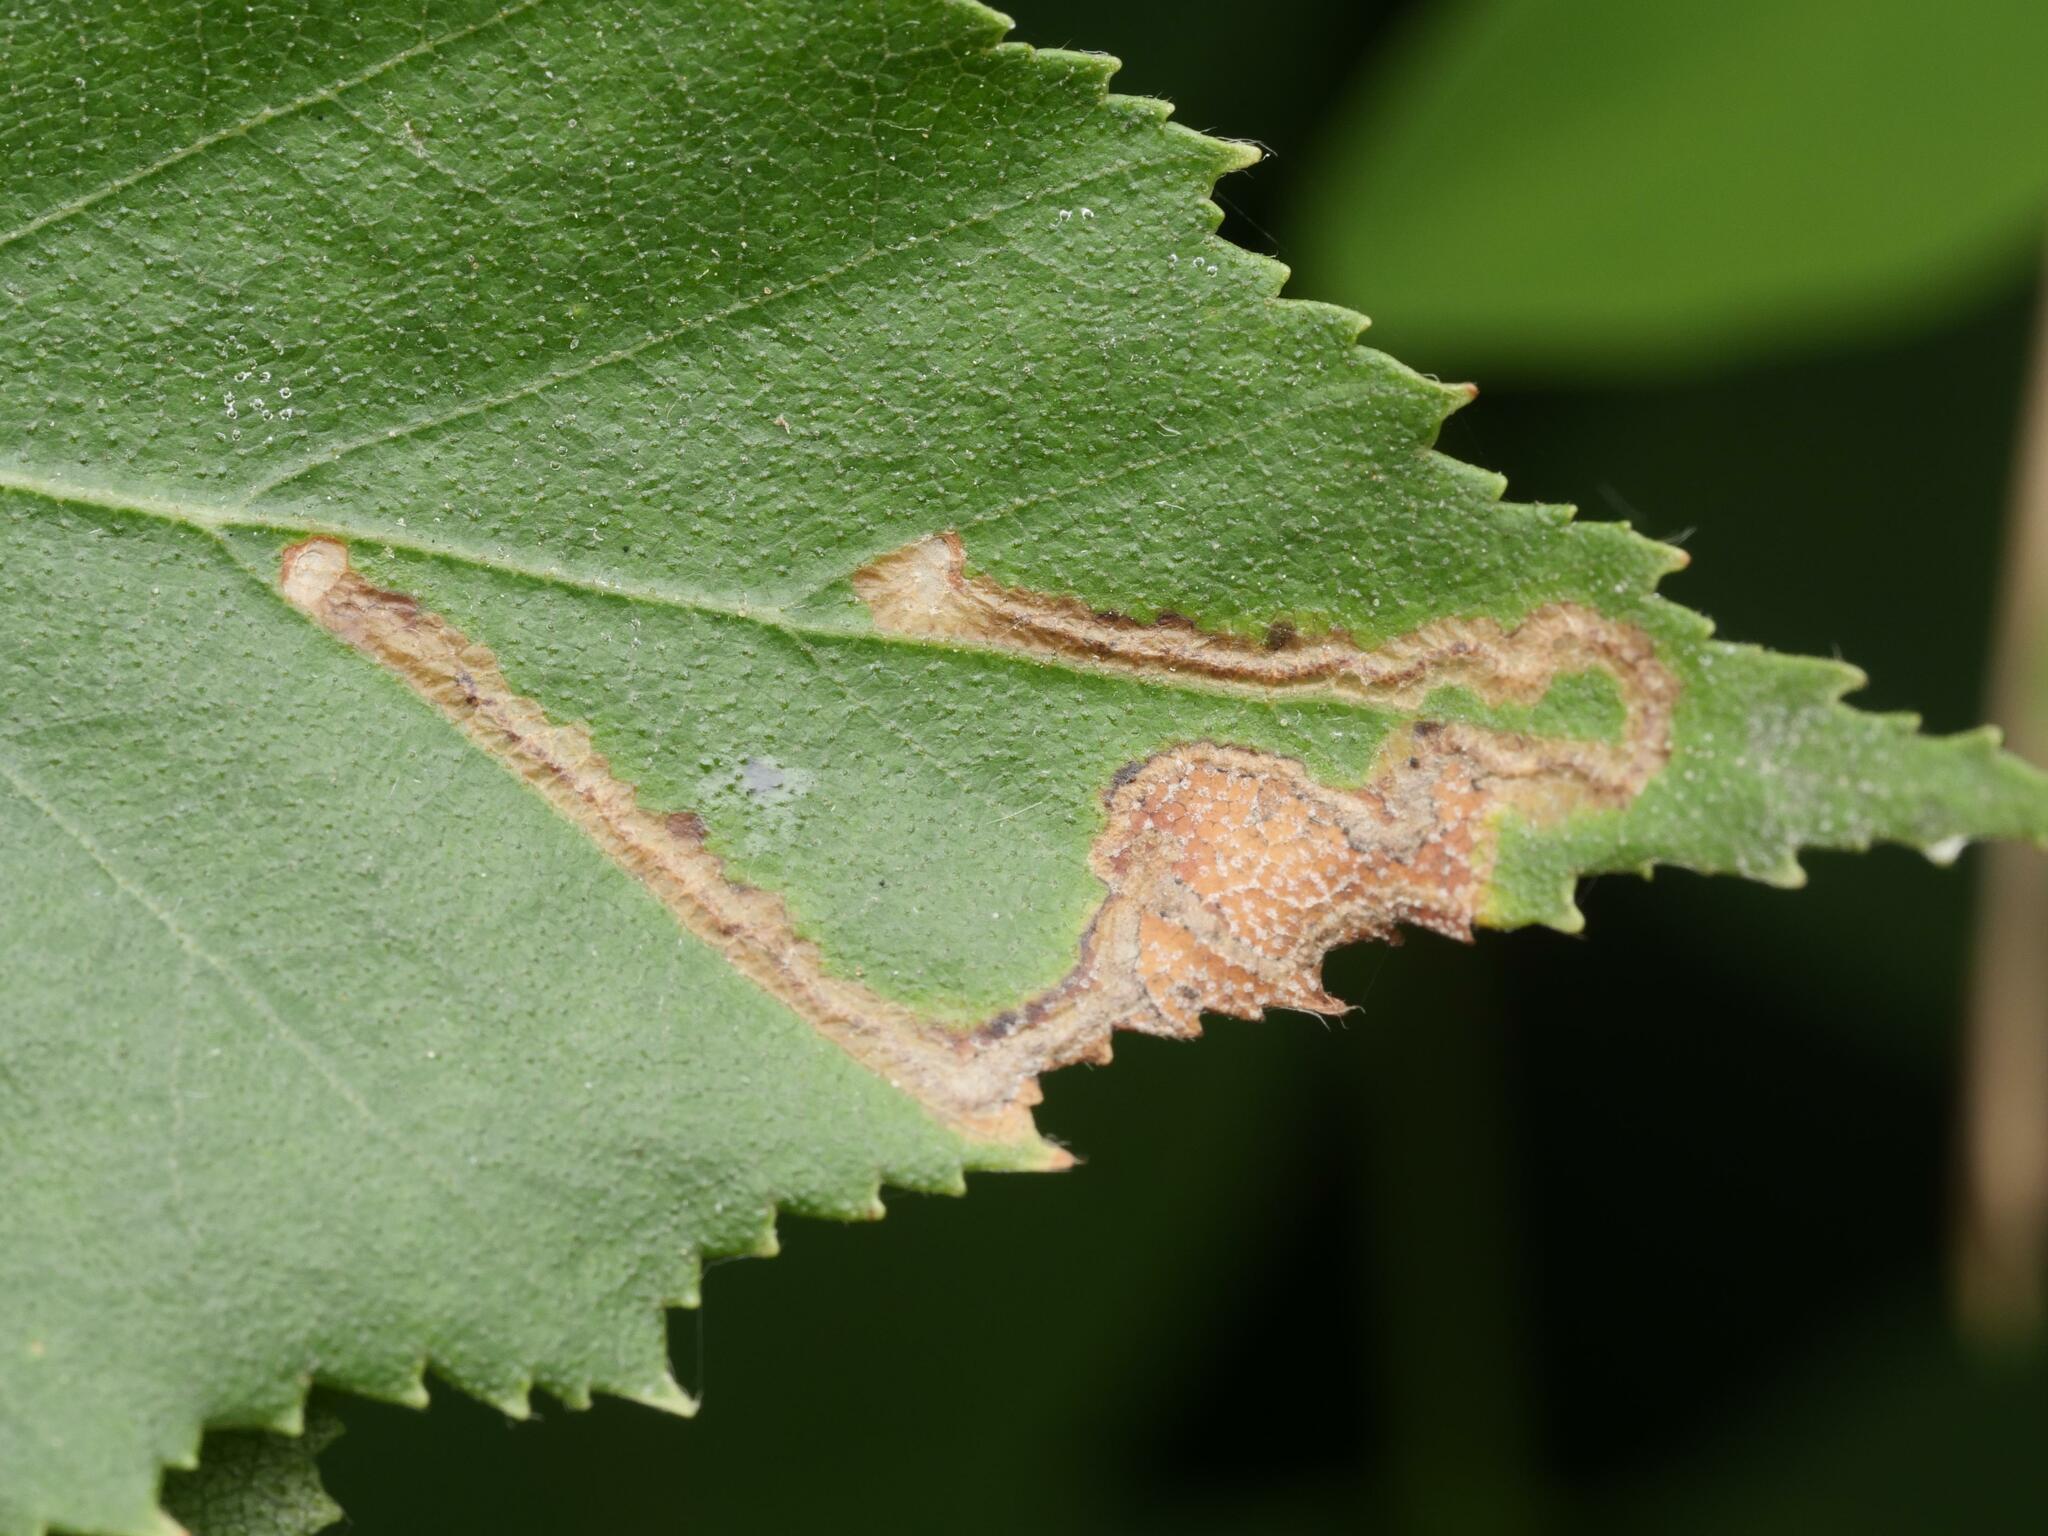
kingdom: Animalia
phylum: Arthropoda
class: Insecta
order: Lepidoptera
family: Nepticulidae
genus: Stigmella
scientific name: Stigmella continuella
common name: Double-barred pigmy
